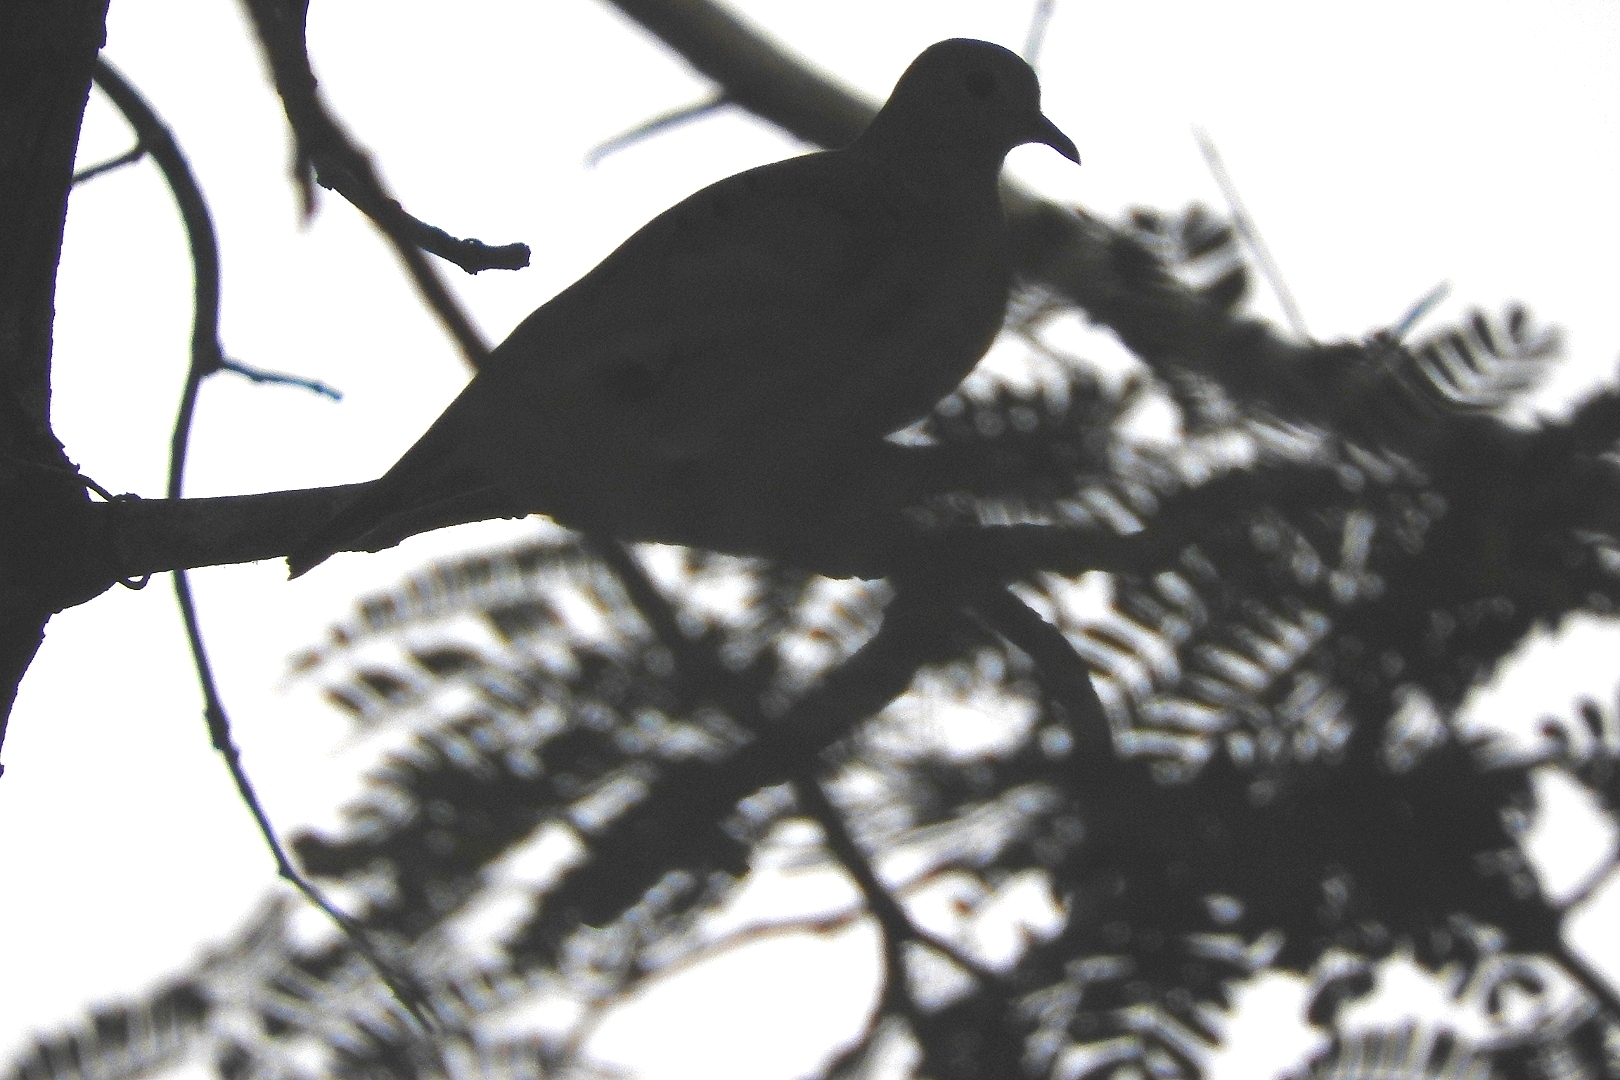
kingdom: Animalia
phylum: Chordata
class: Aves
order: Columbiformes
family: Columbidae
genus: Columbina
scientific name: Columbina talpacoti
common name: Ruddy ground dove
